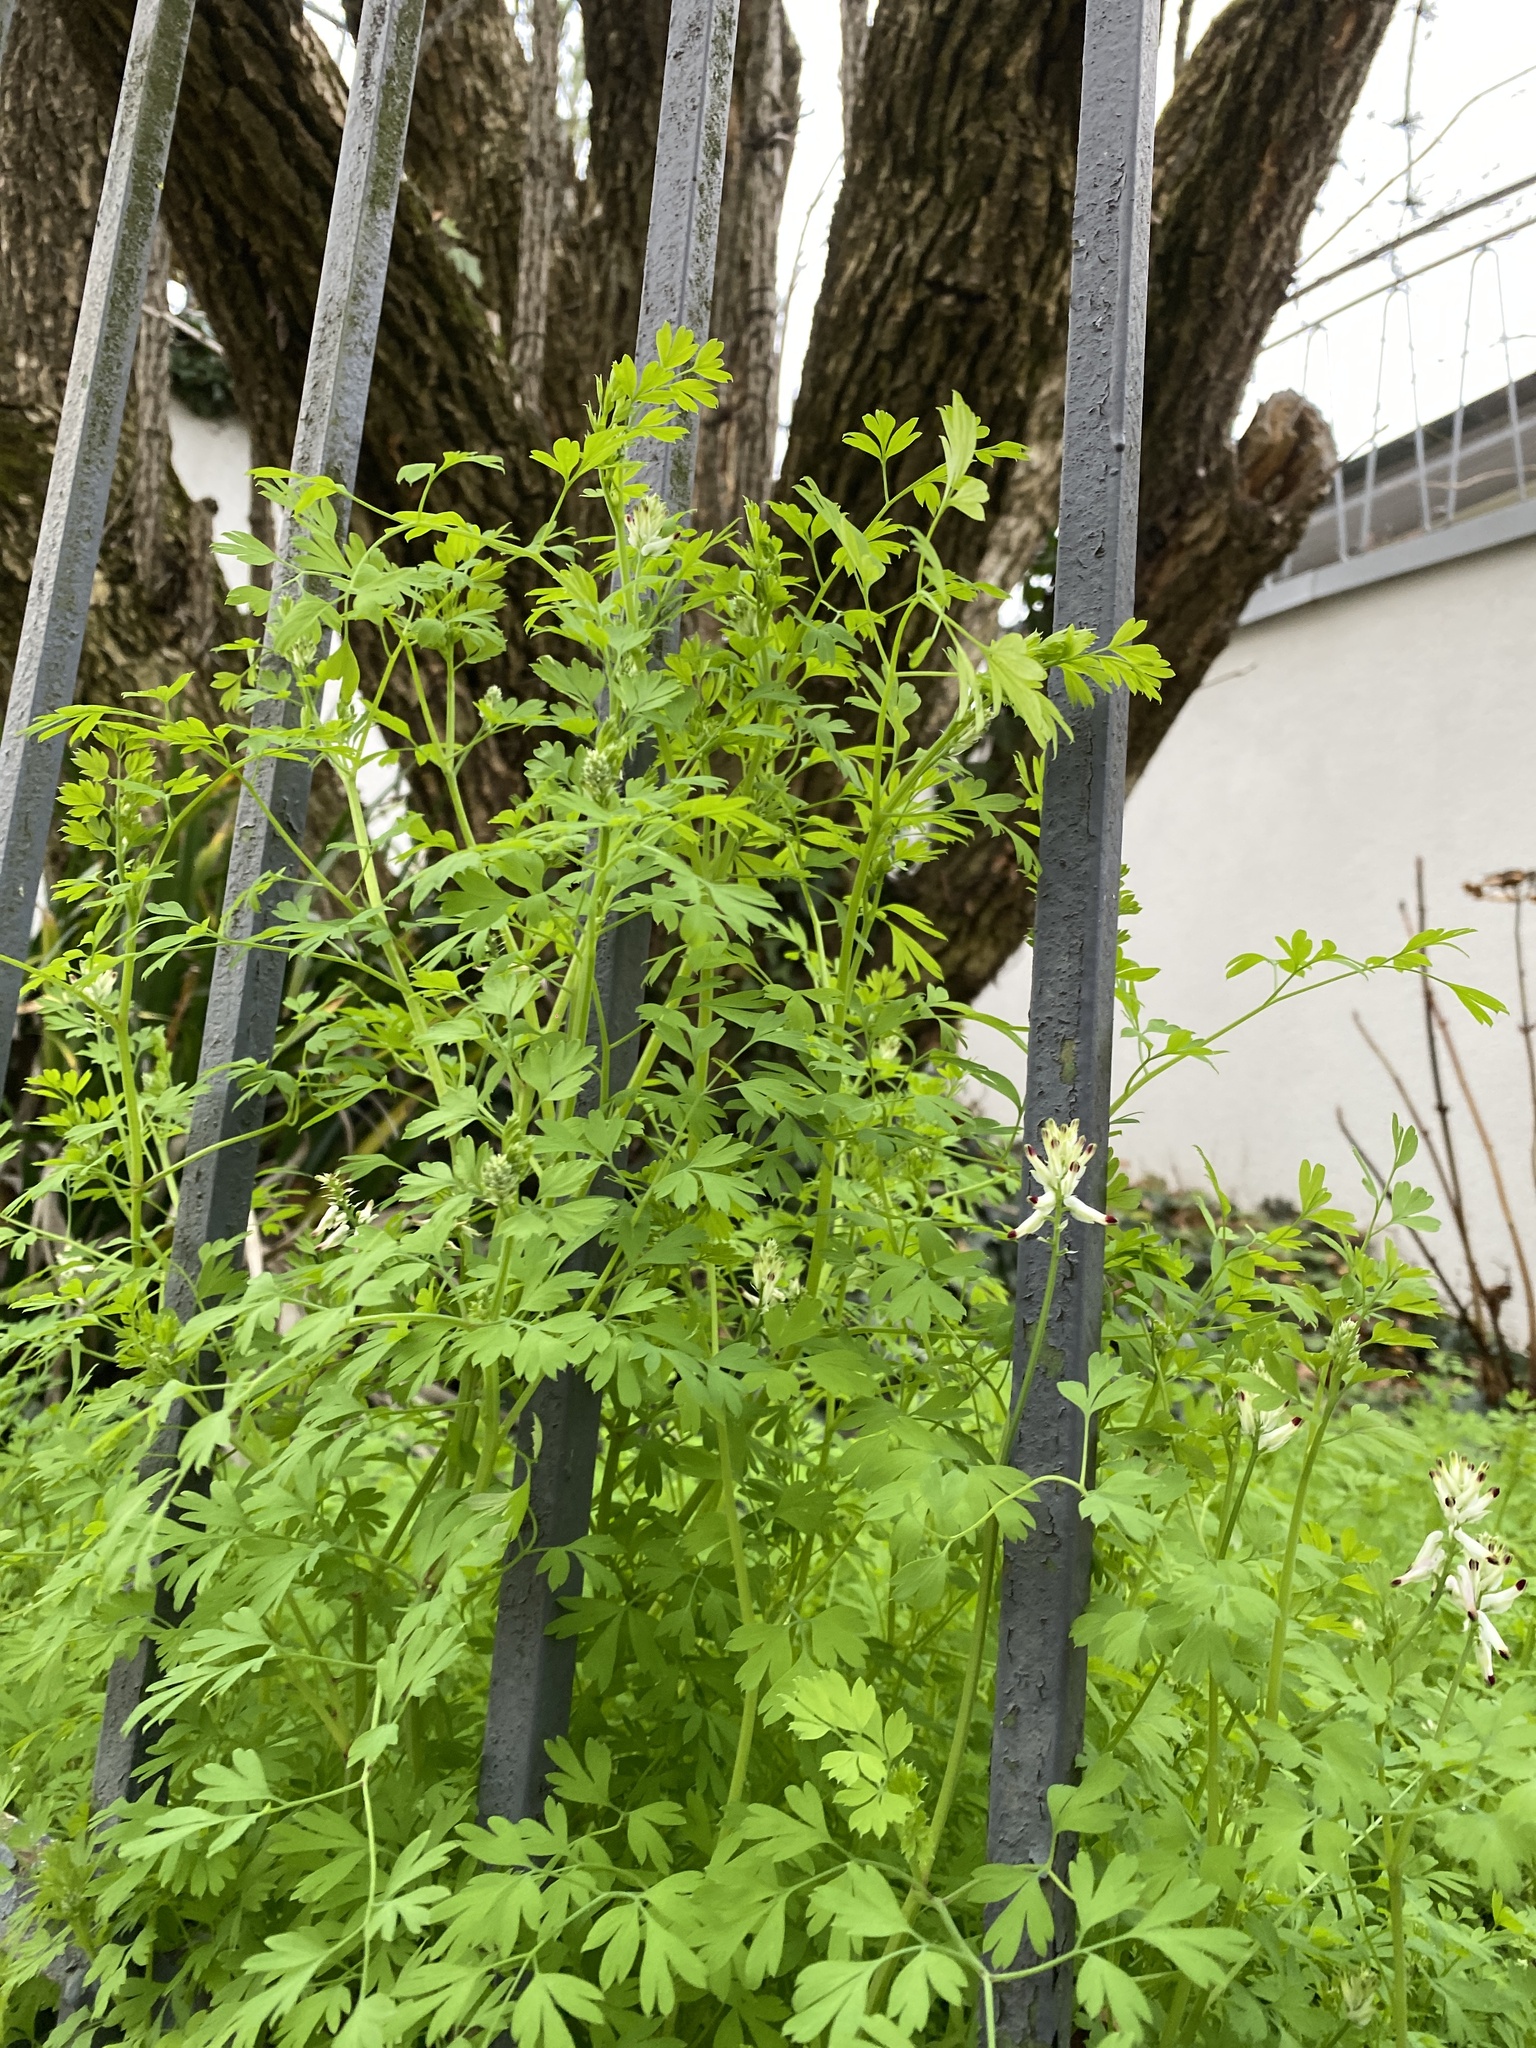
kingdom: Plantae
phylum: Tracheophyta
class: Magnoliopsida
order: Ranunculales
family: Papaveraceae
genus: Fumaria
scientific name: Fumaria capreolata
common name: White ramping-fumitory
